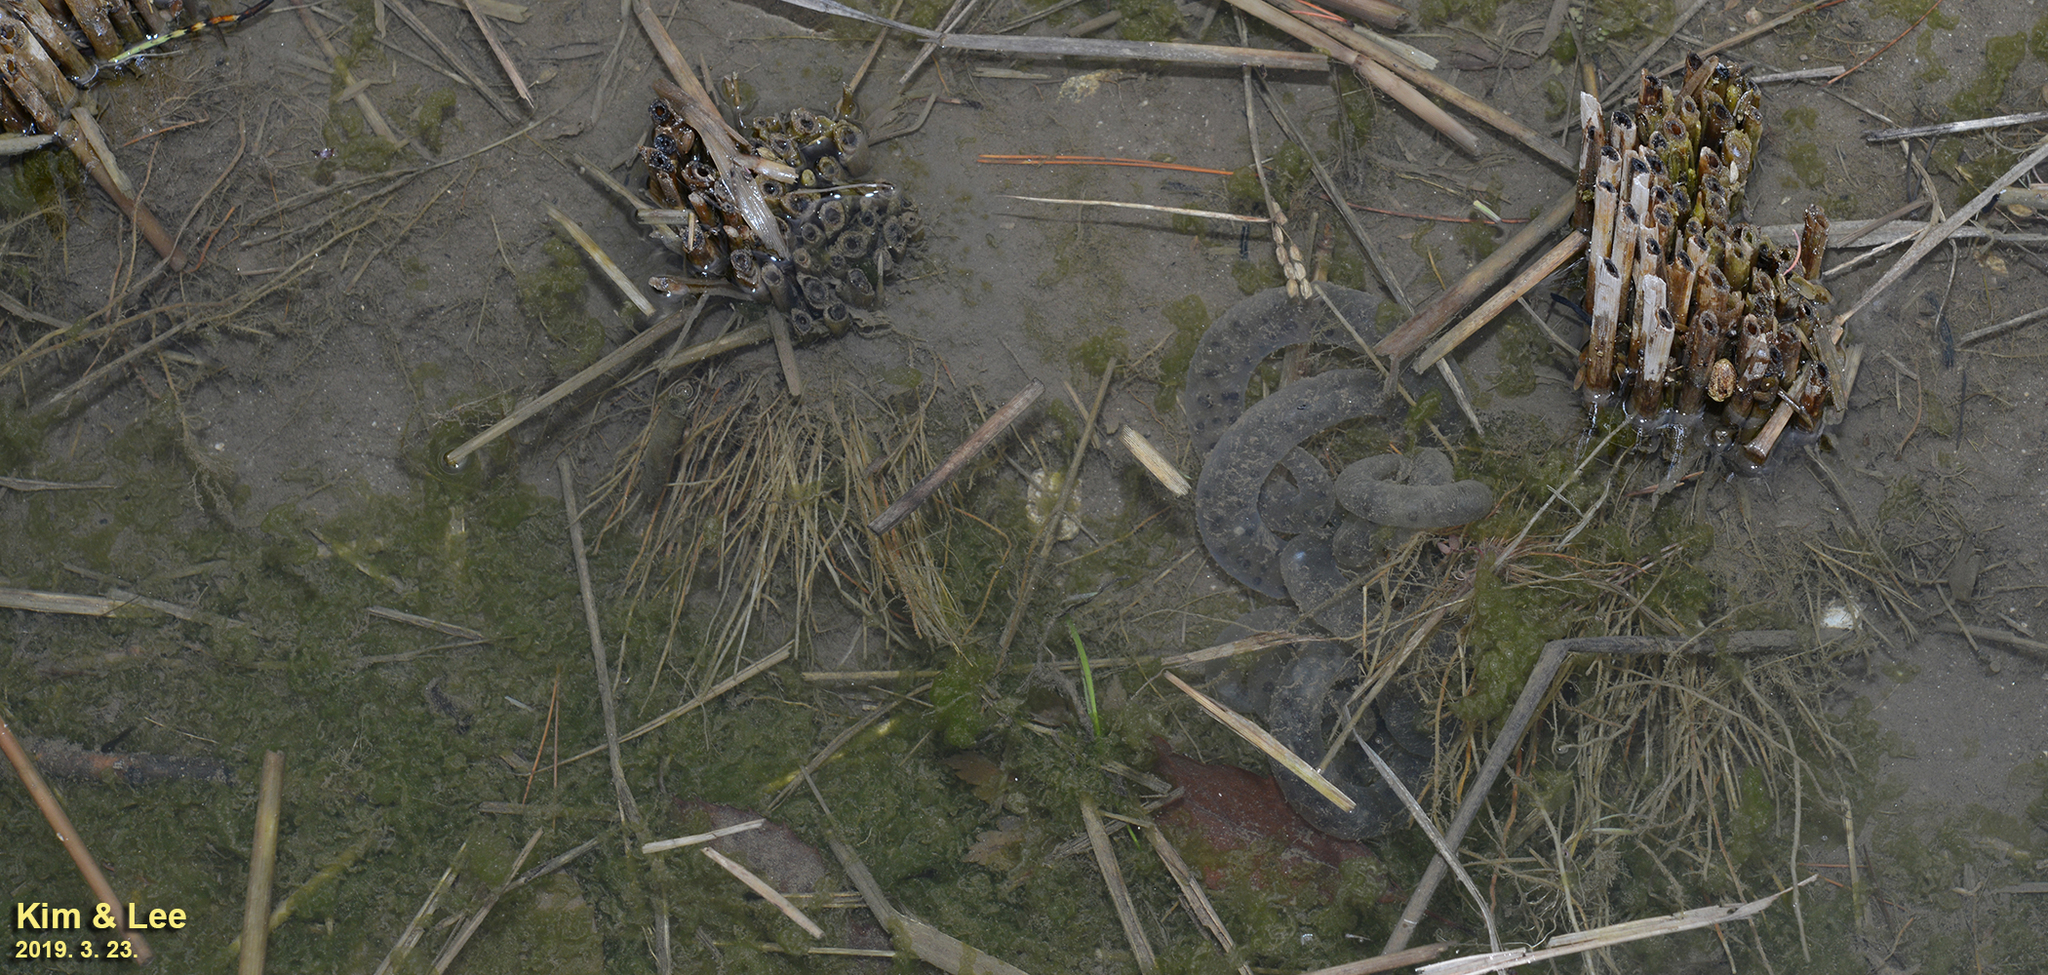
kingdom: Animalia
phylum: Chordata
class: Amphibia
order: Caudata
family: Hynobiidae
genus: Hynobius
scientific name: Hynobius leechii
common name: Gensan salamander
